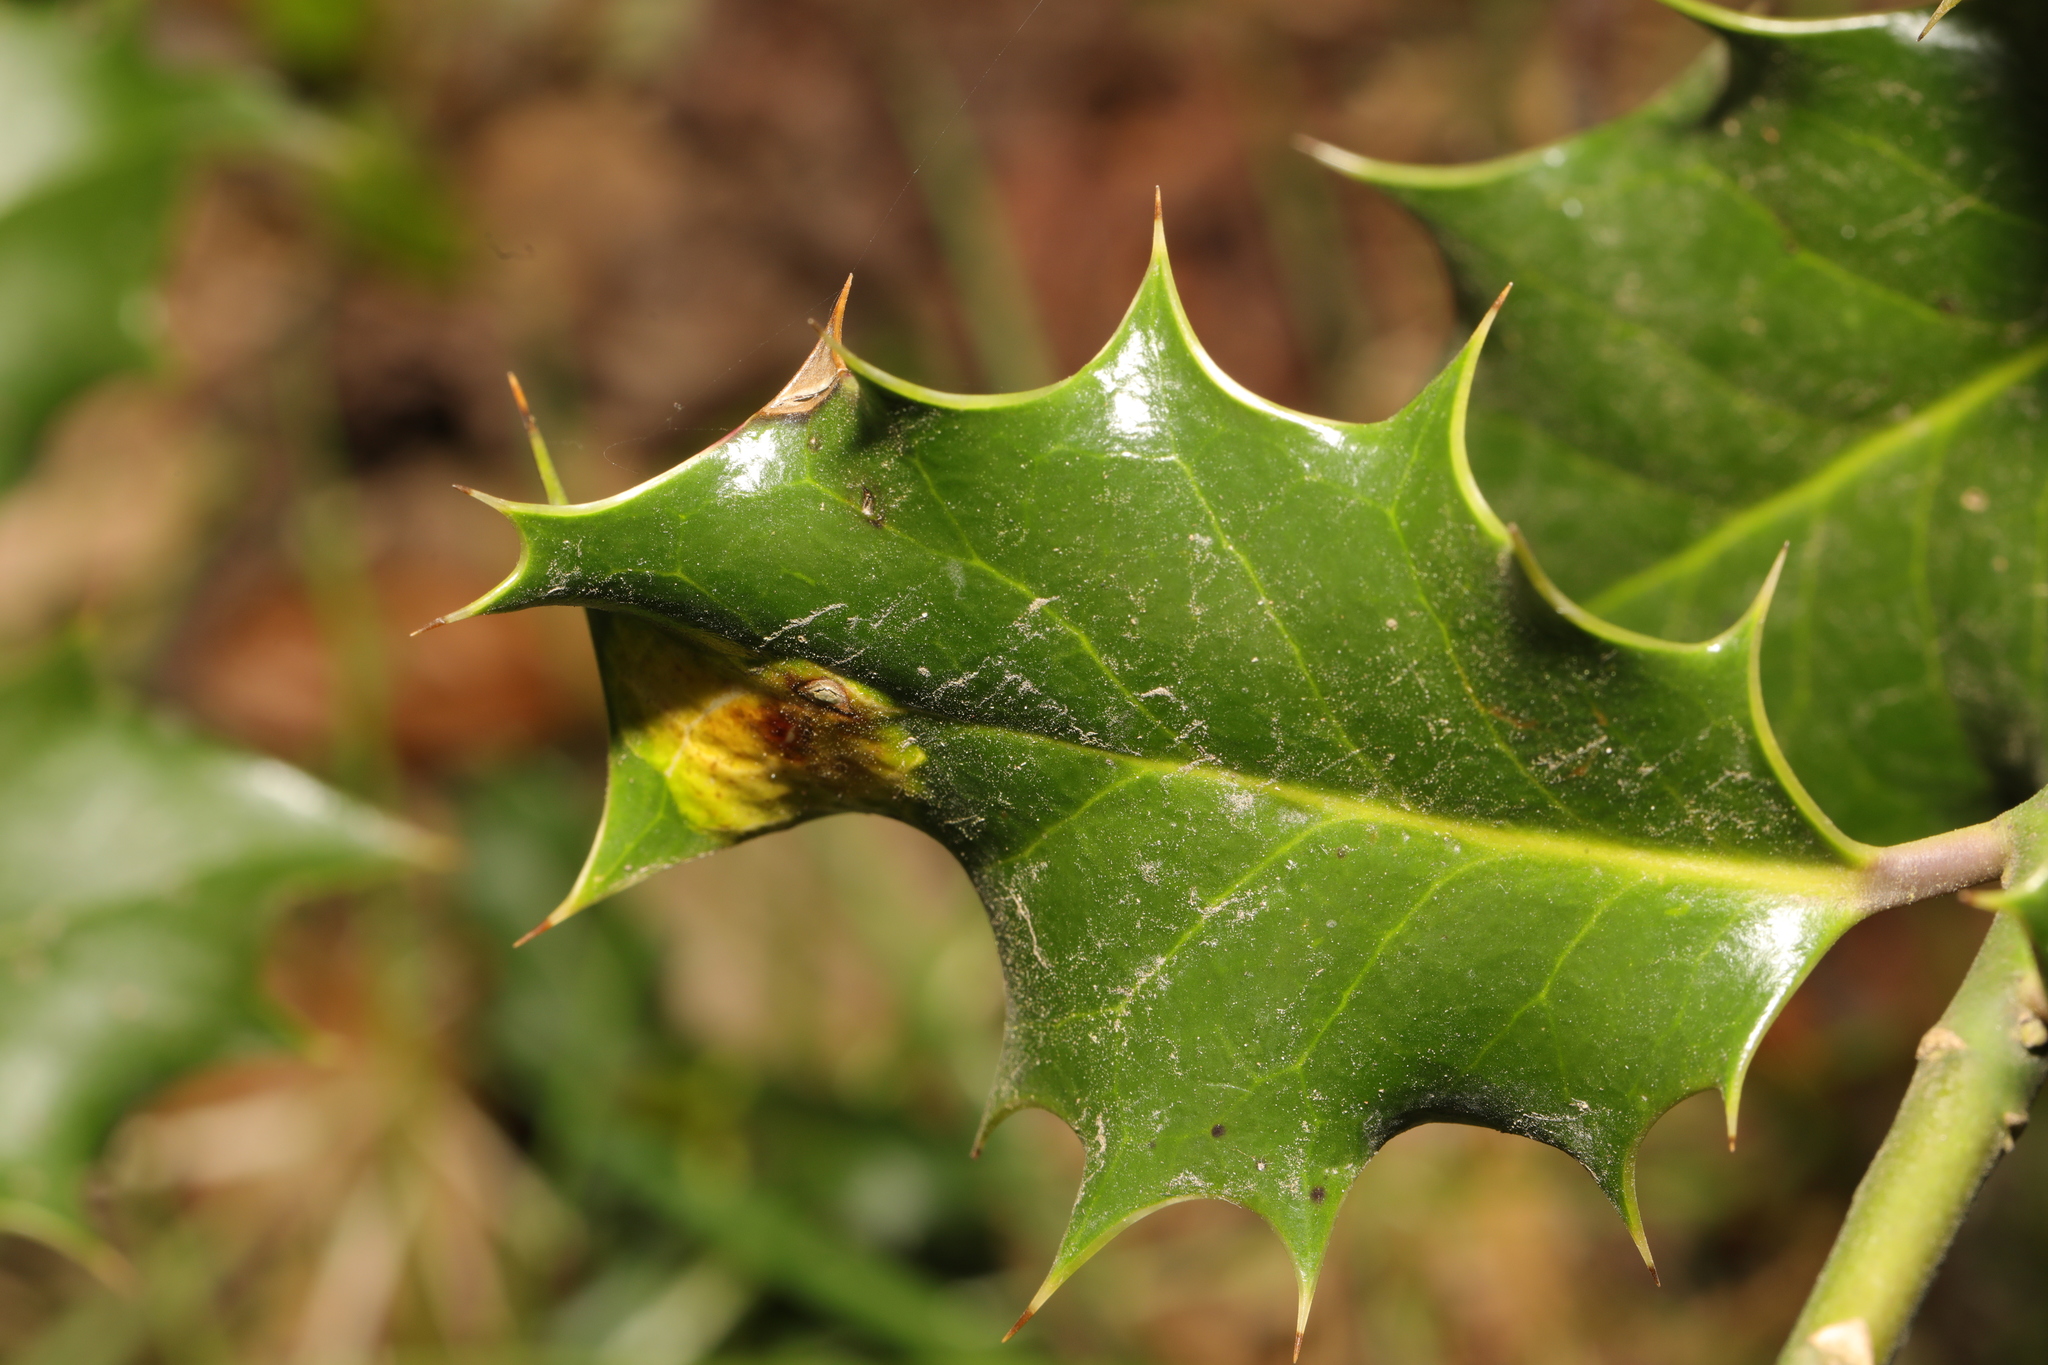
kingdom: Animalia
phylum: Arthropoda
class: Insecta
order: Diptera
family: Agromyzidae
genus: Phytomyza
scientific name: Phytomyza ilicis
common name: Holly leafminer
